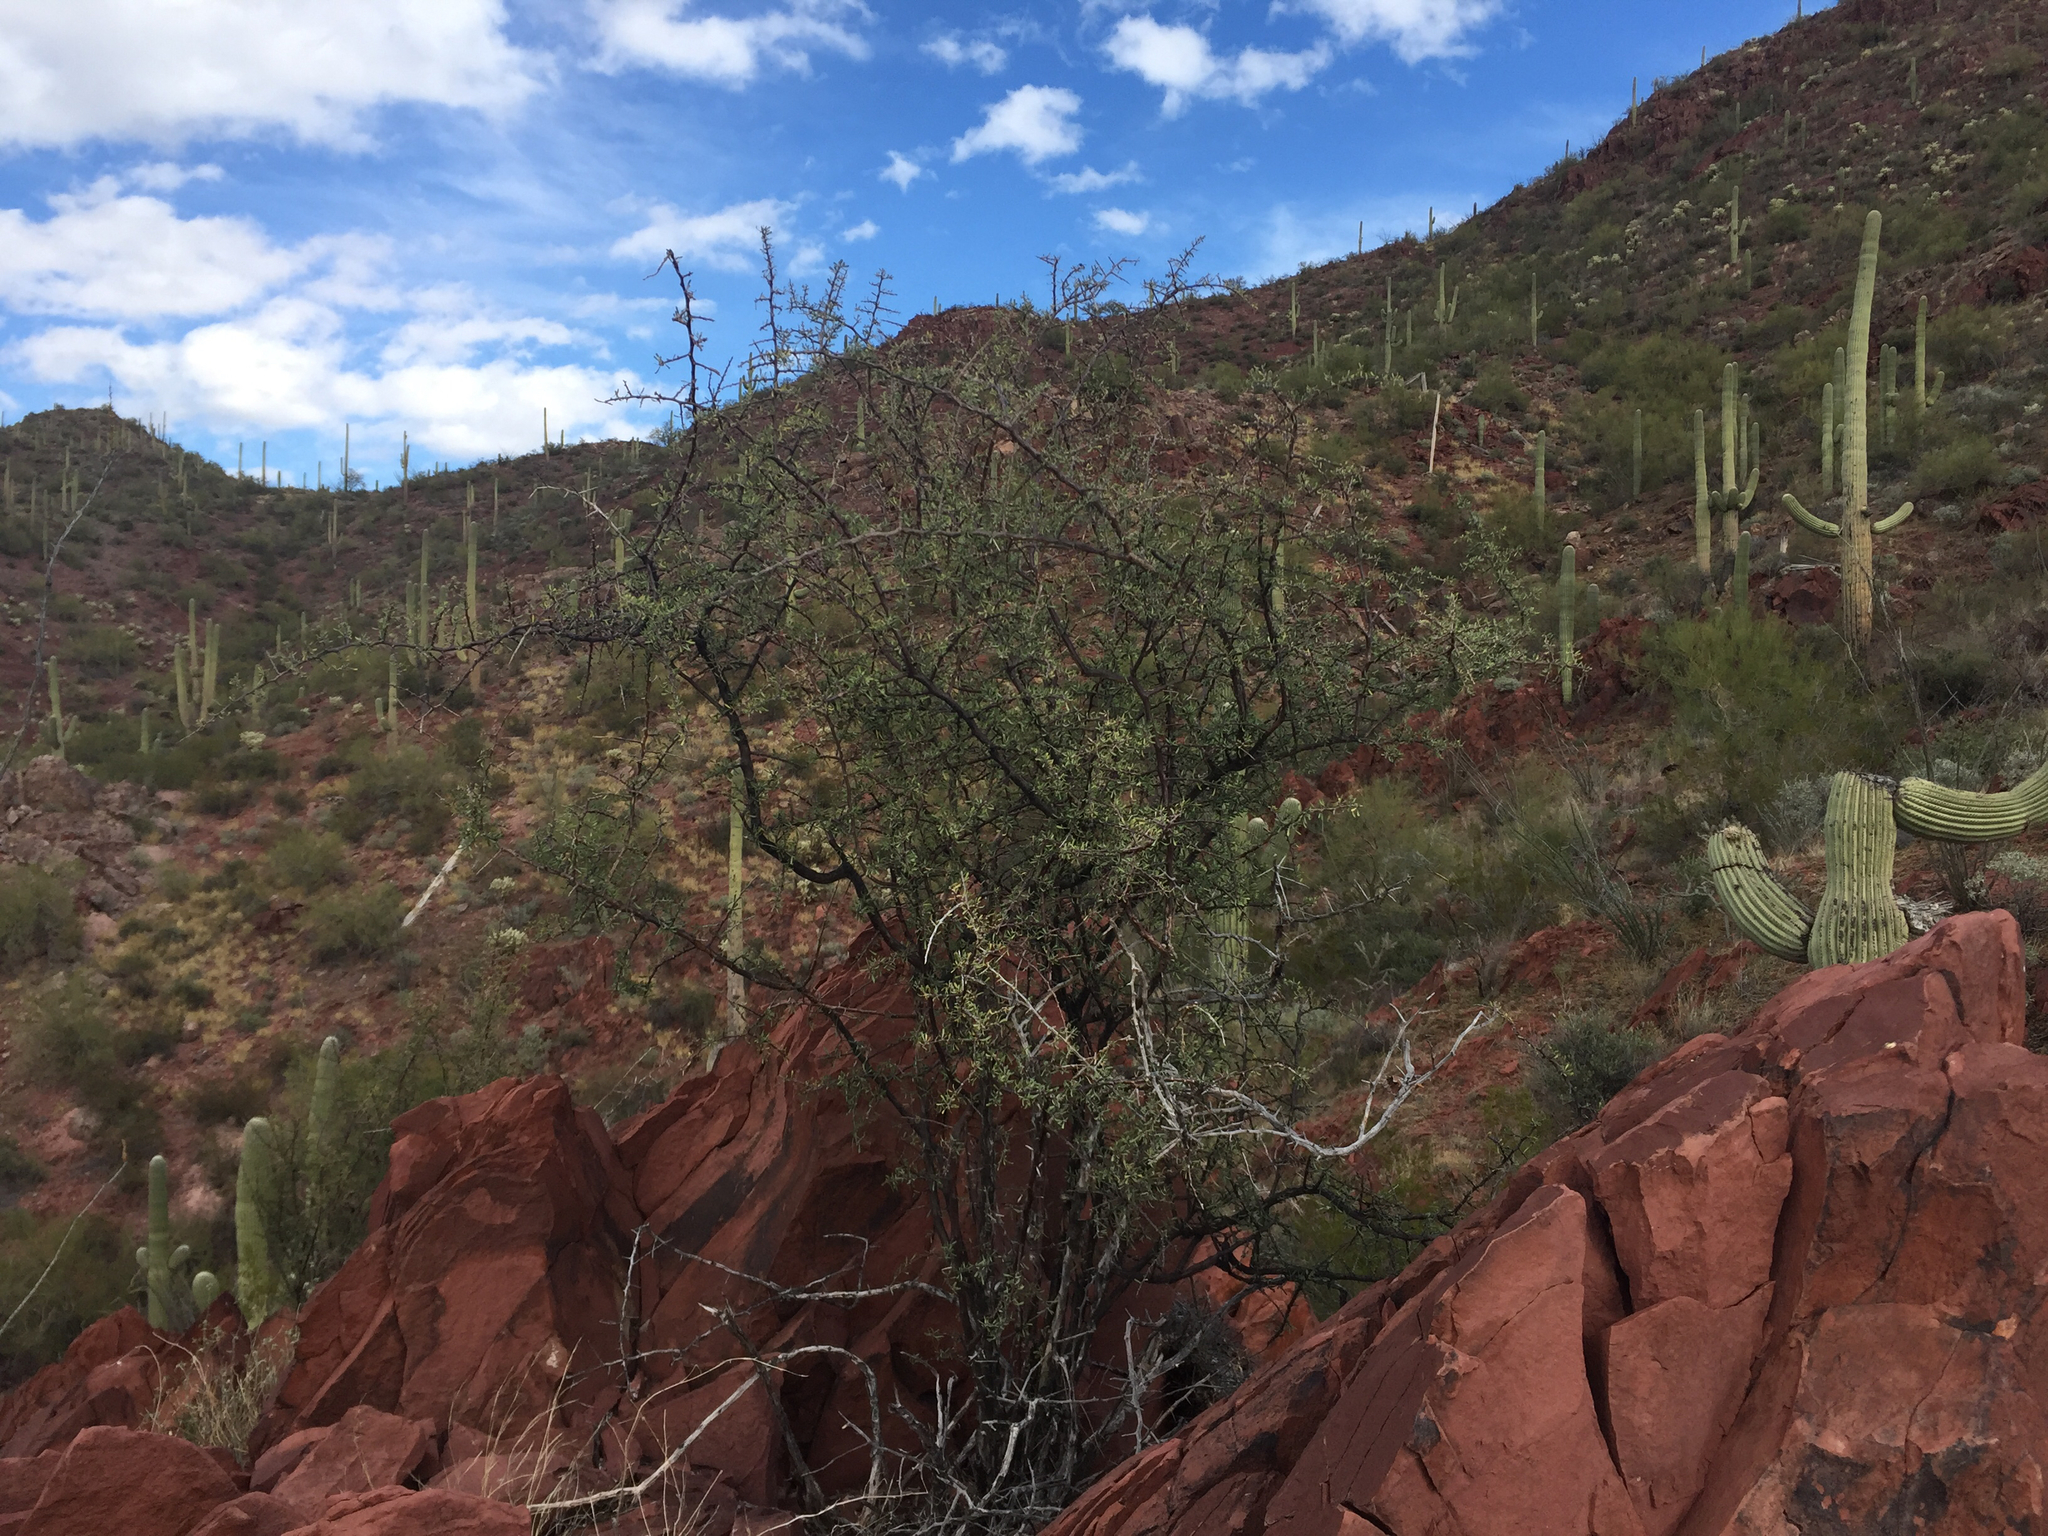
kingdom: Plantae
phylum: Tracheophyta
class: Magnoliopsida
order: Solanales
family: Solanaceae
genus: Lycium
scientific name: Lycium berlandieri
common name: Berlandier wolfberry
